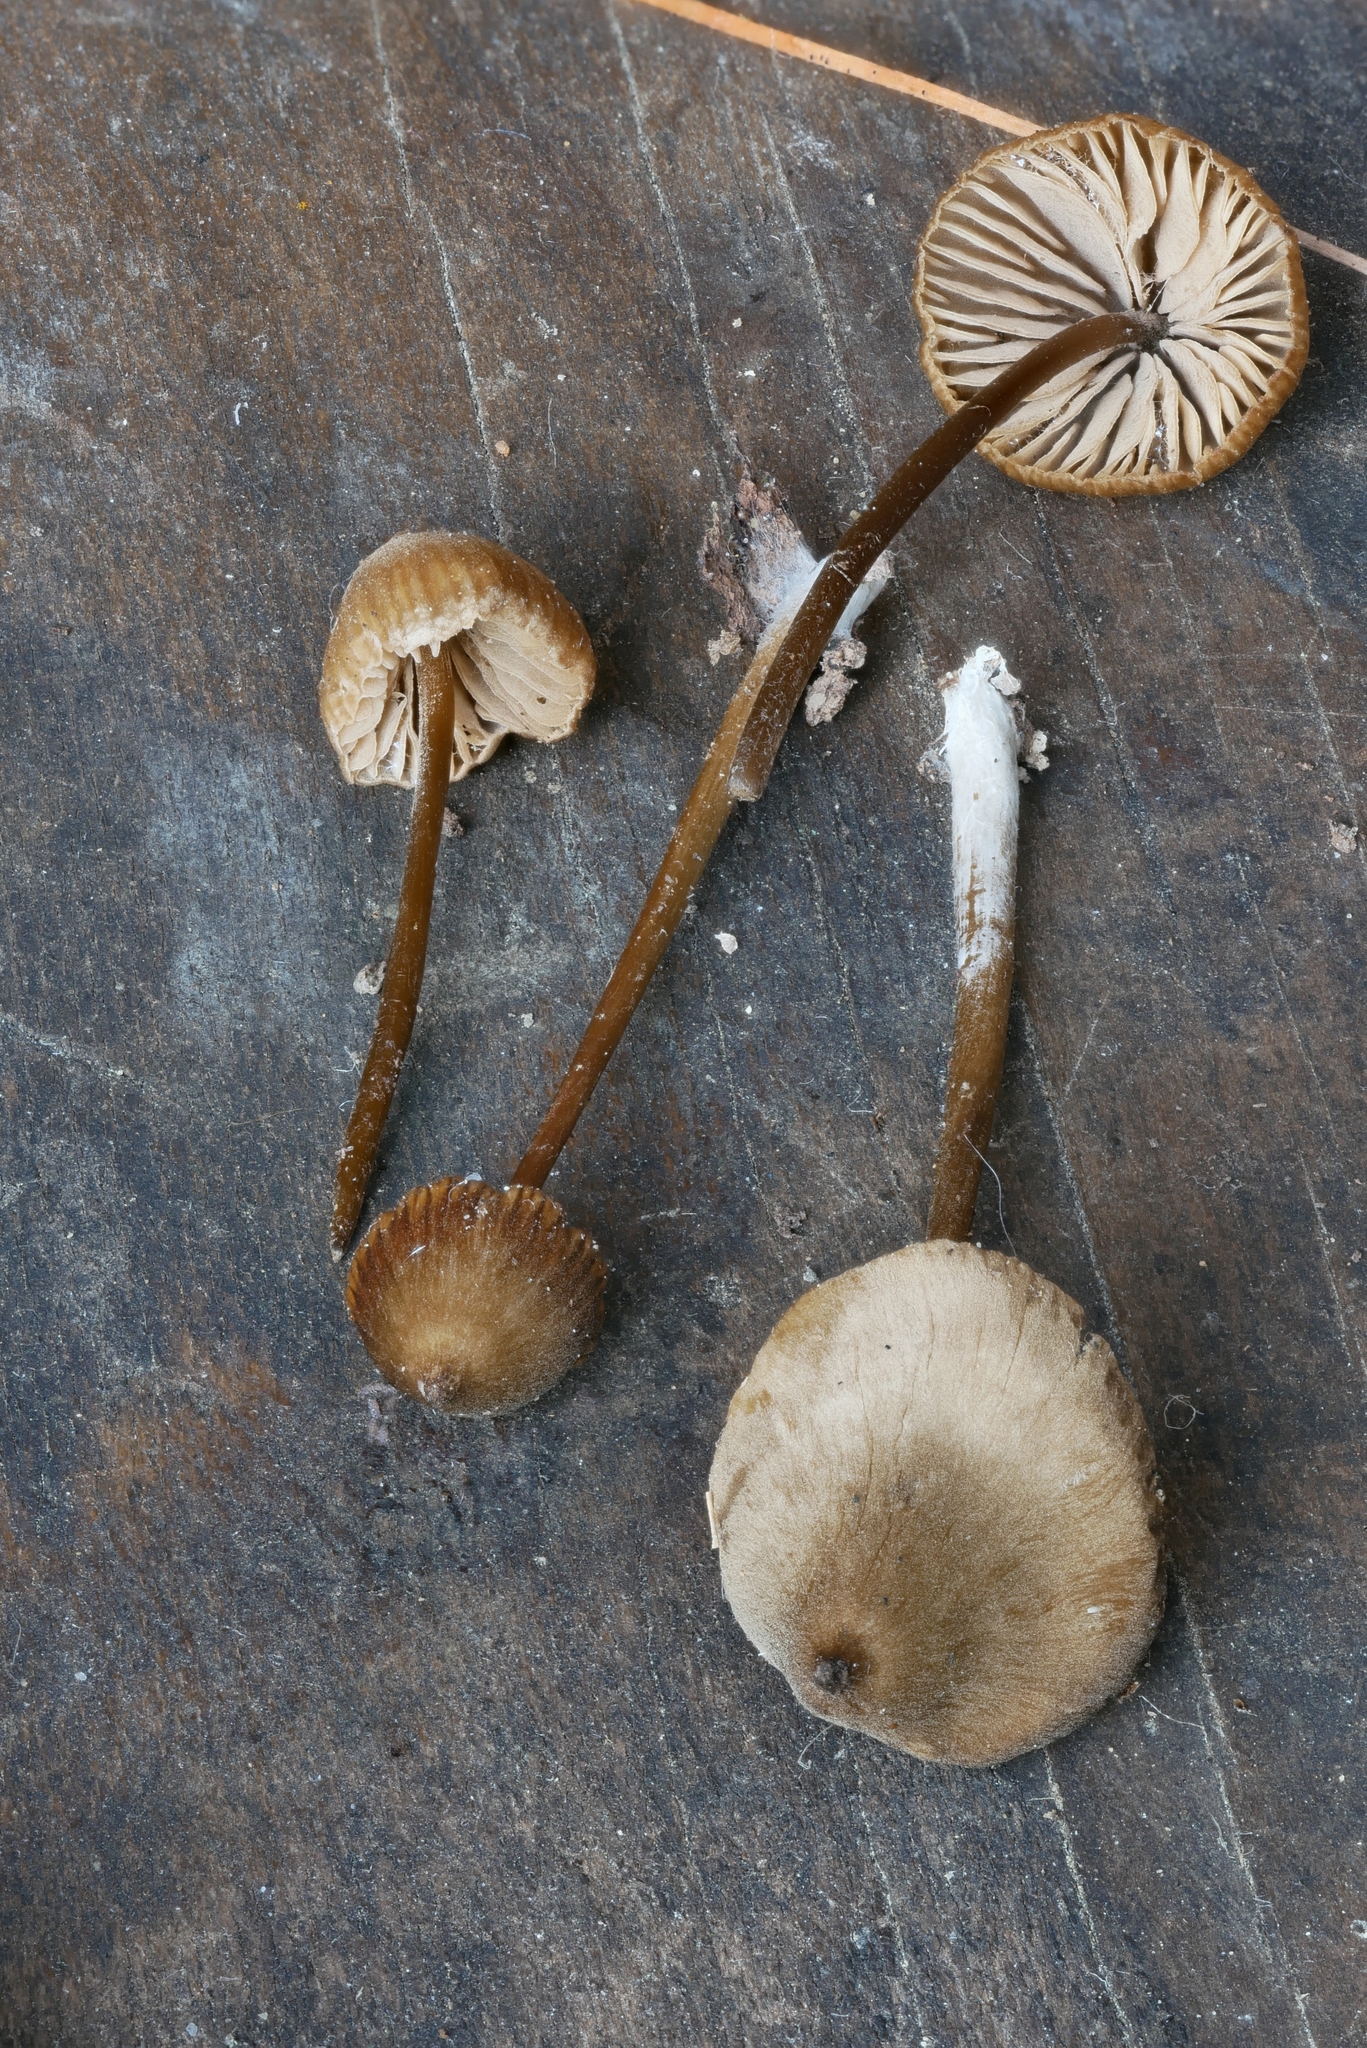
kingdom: Fungi
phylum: Basidiomycota
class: Agaricomycetes
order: Agaricales
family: Mycenaceae
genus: Mycena
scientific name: Mycena alcalina
